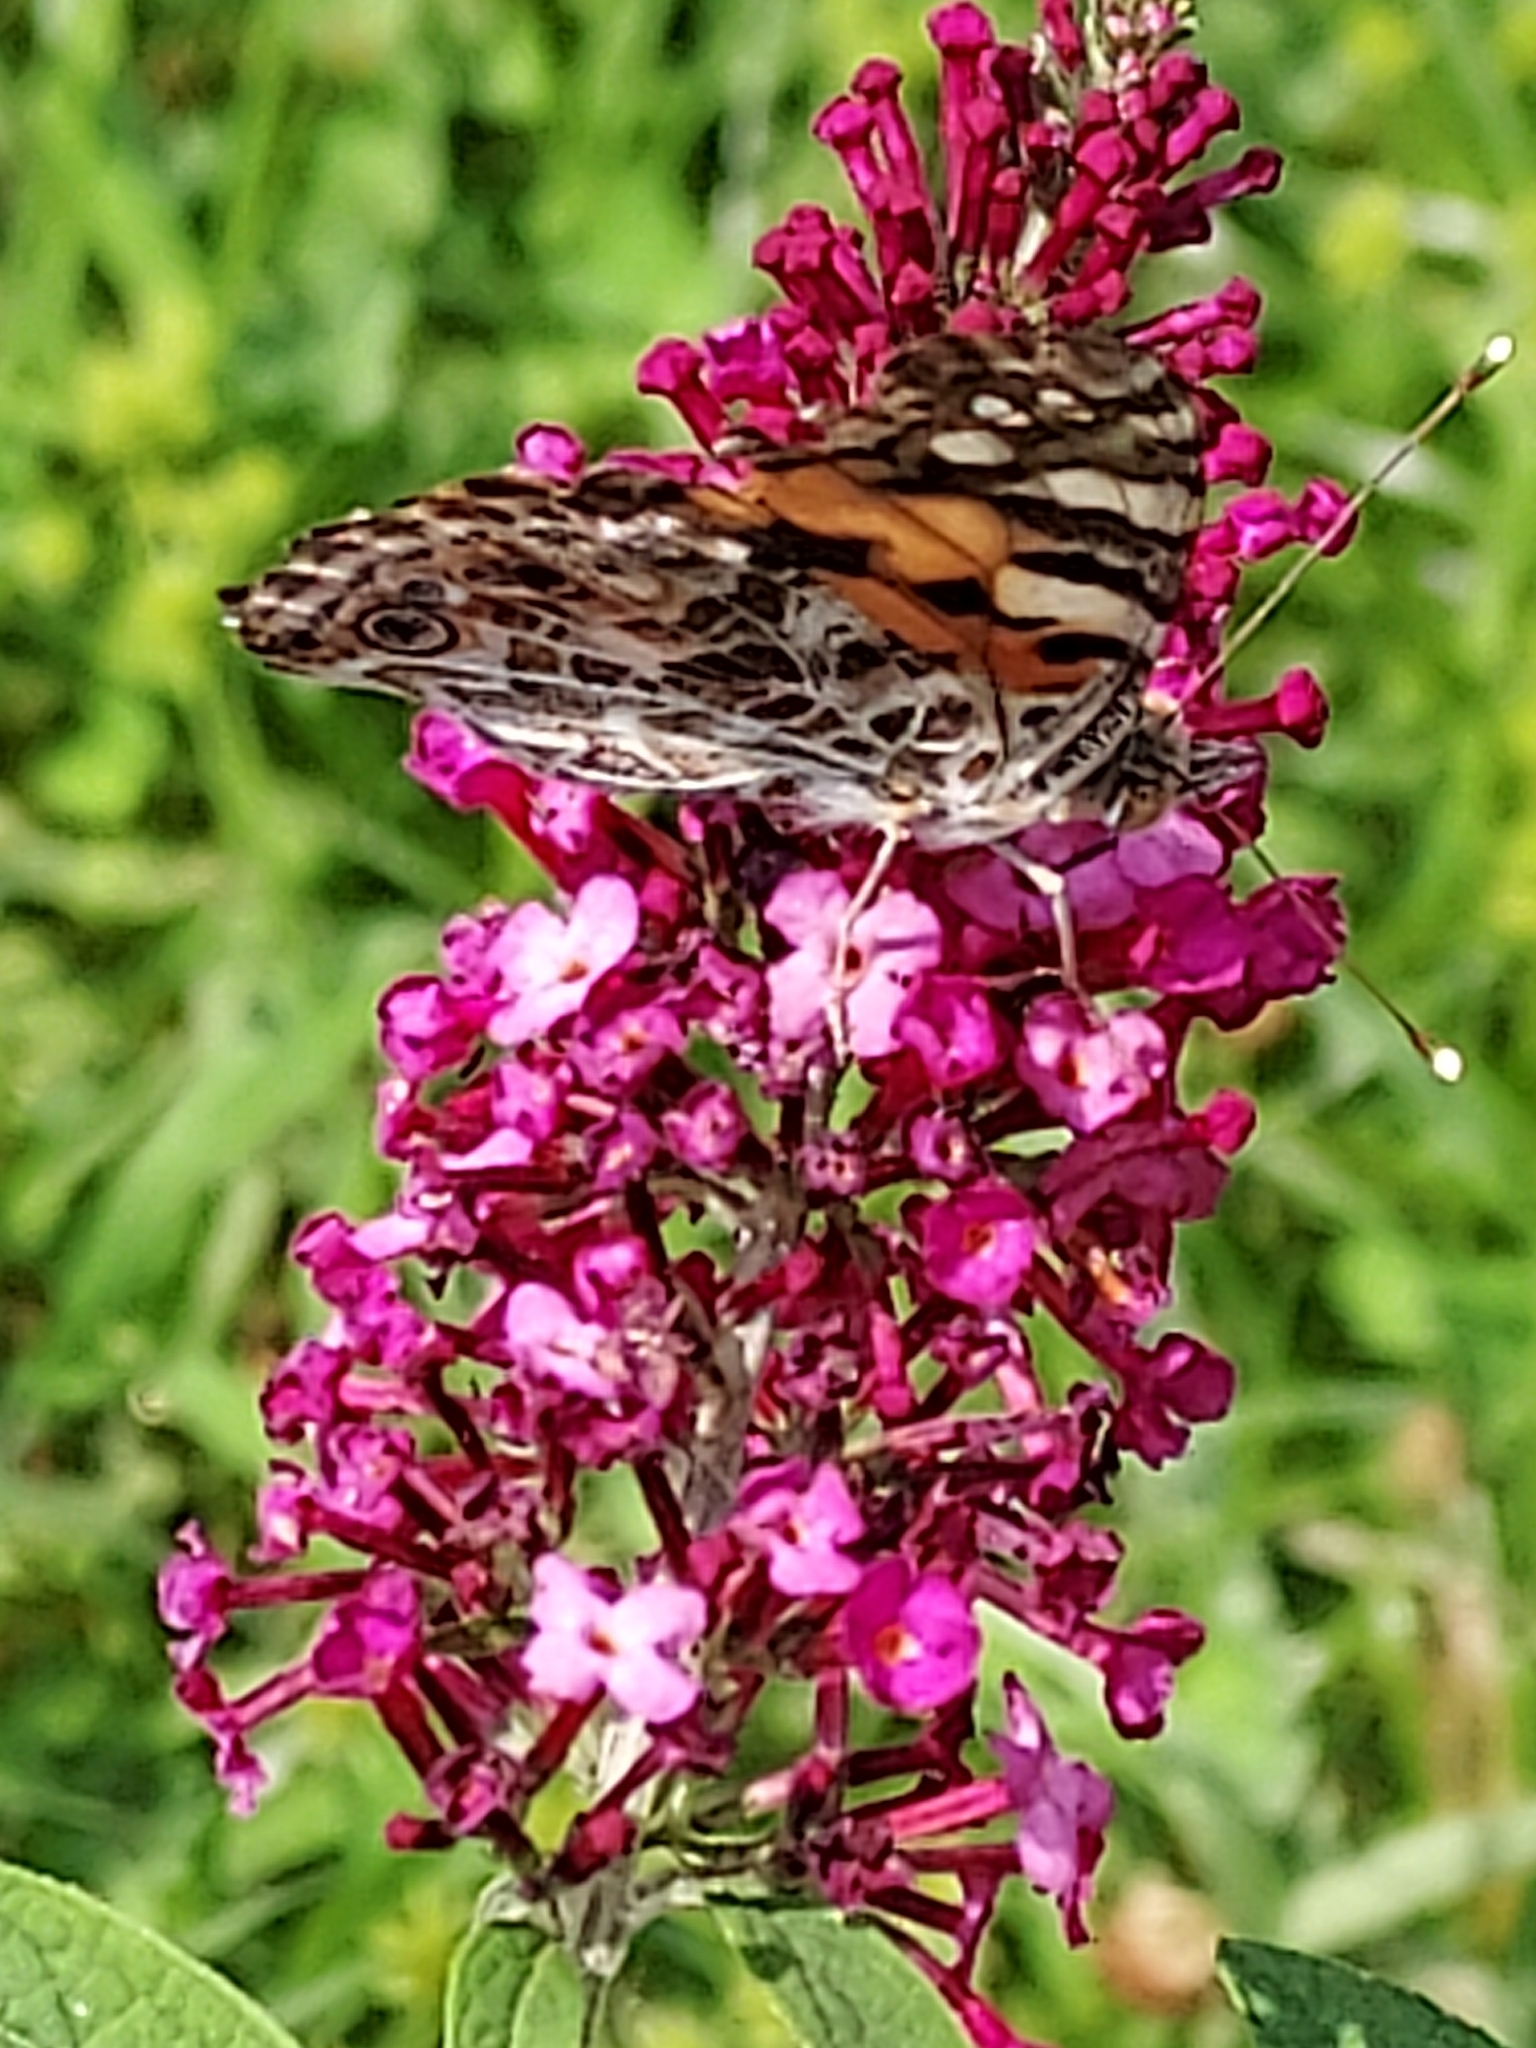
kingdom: Animalia
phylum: Arthropoda
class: Insecta
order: Lepidoptera
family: Nymphalidae
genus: Vanessa
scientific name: Vanessa cardui
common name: Painted lady
